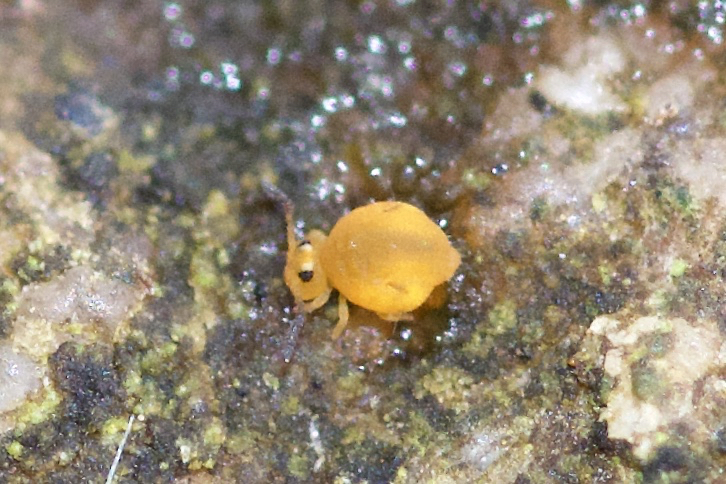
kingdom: Animalia
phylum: Arthropoda
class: Collembola
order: Symphypleona
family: Katiannidae
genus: Sminthurinus
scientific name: Sminthurinus henshawi
